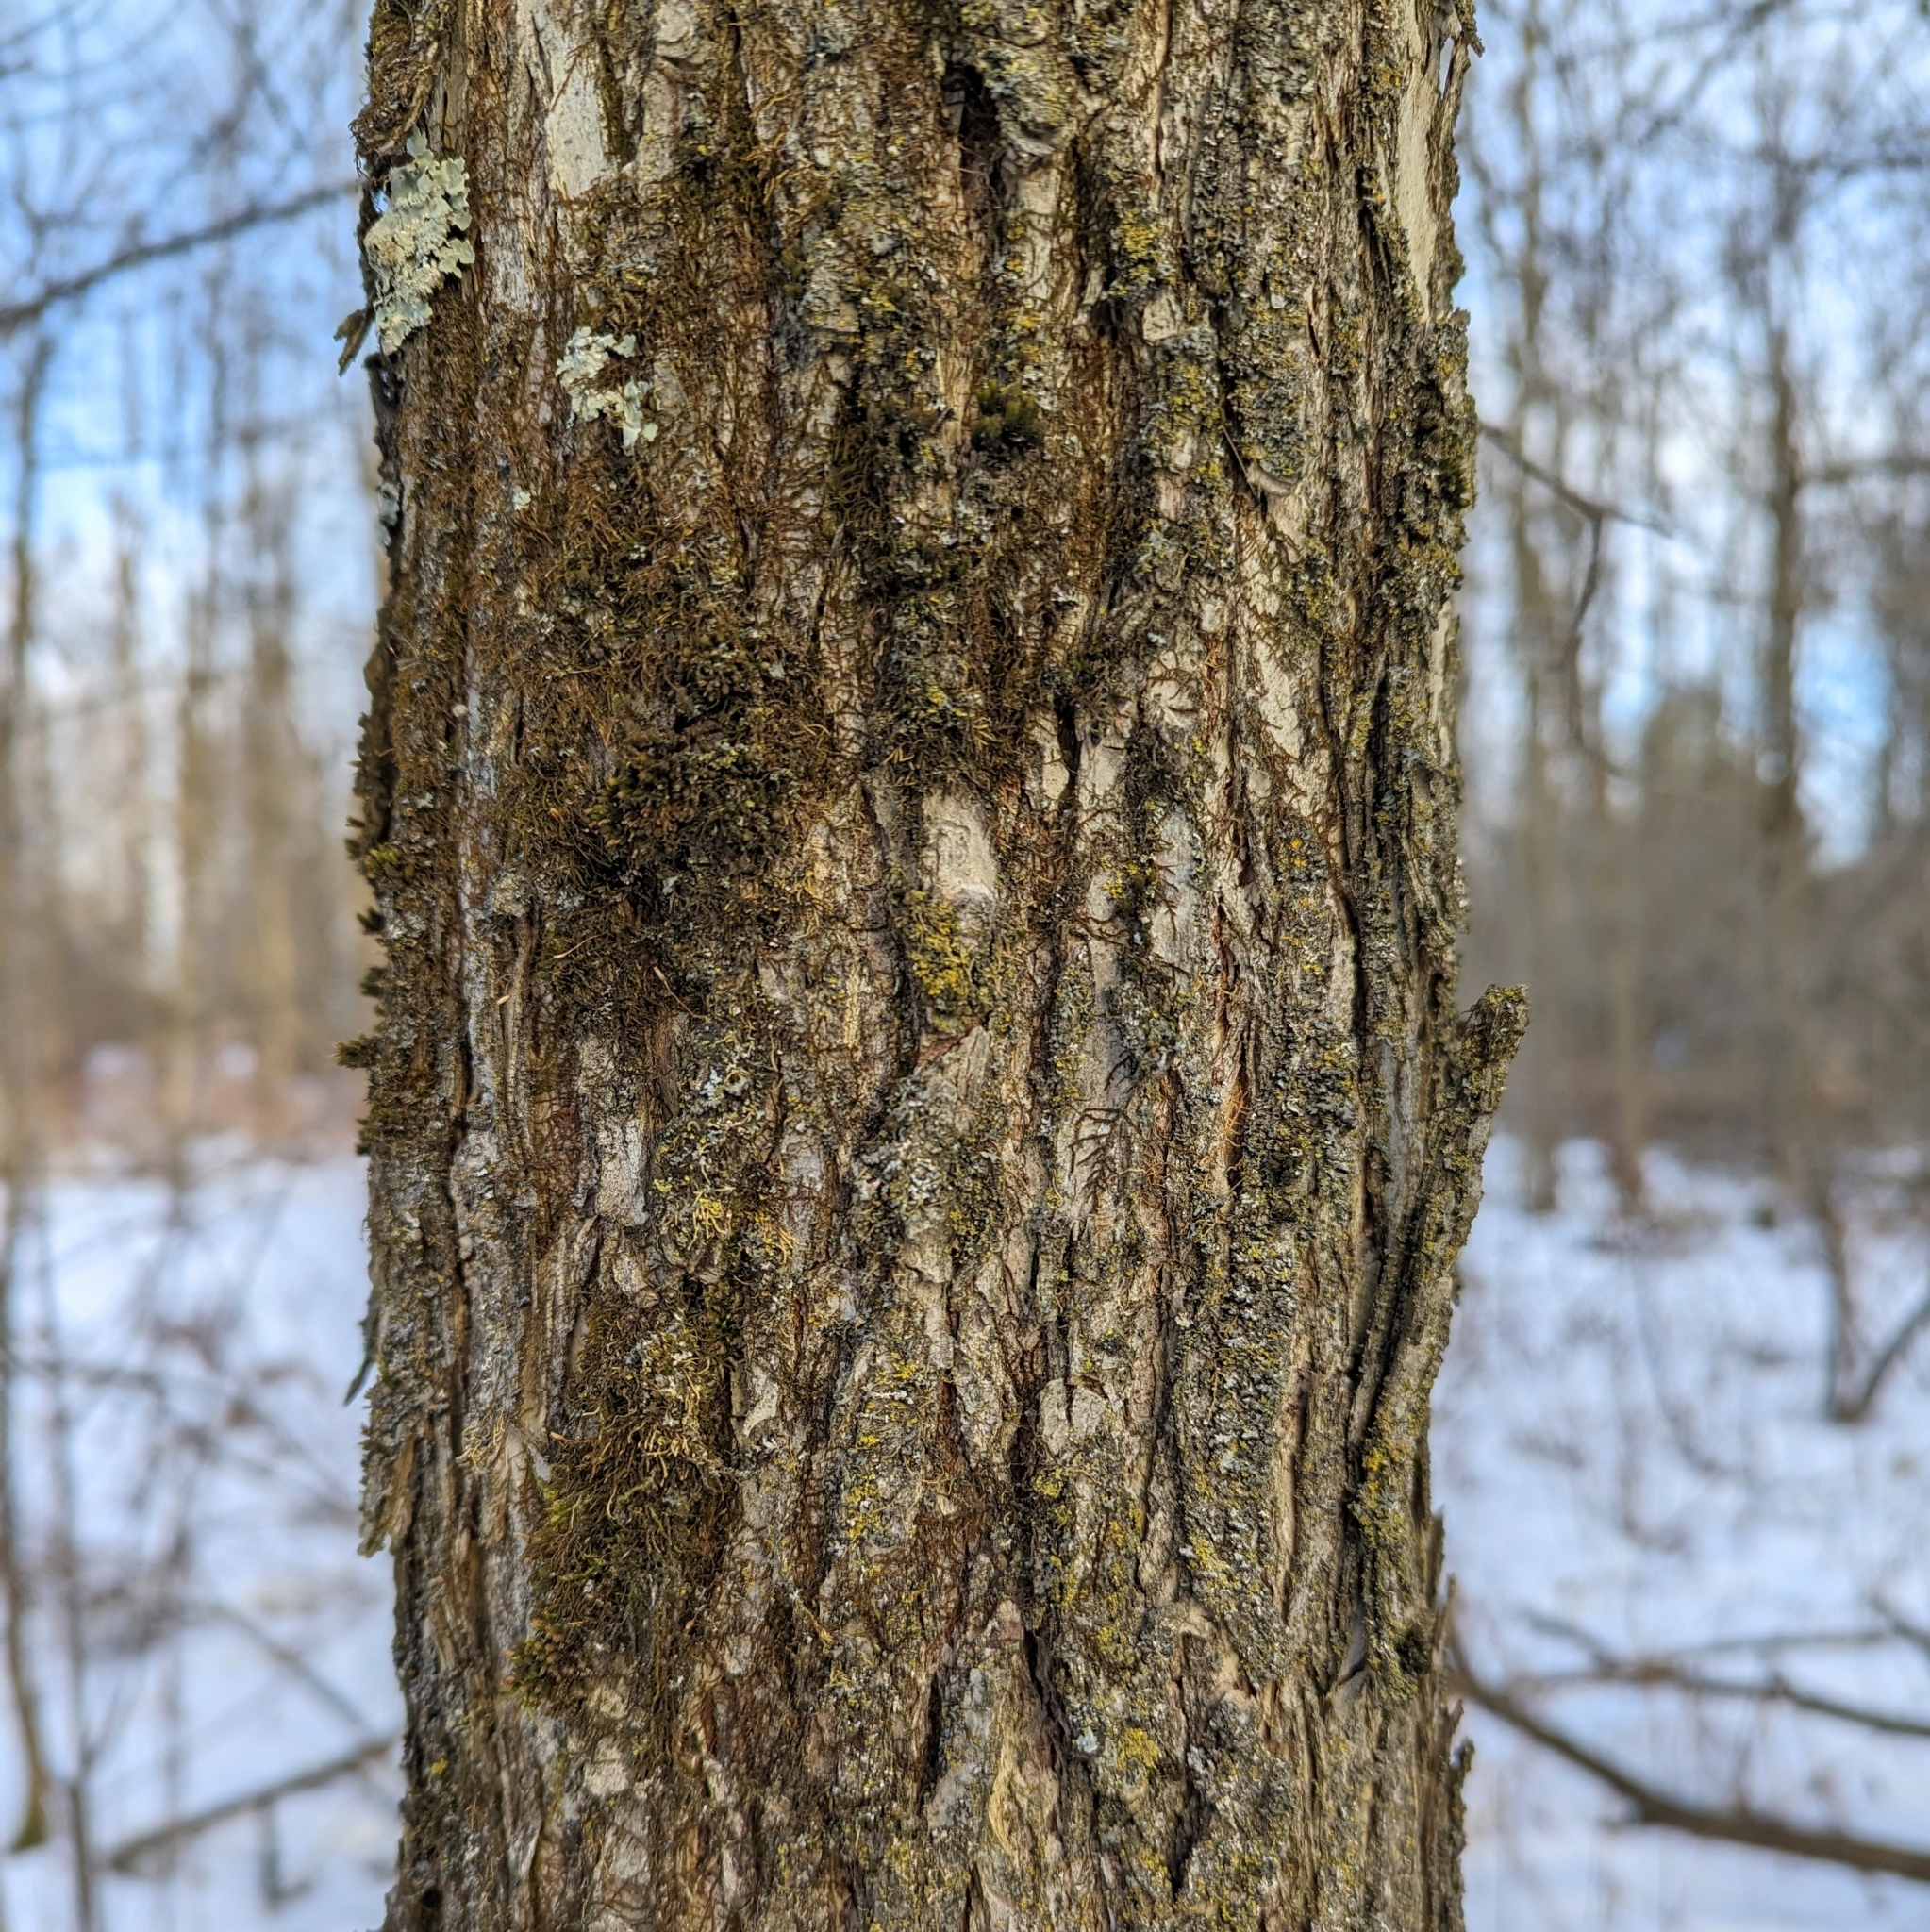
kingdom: Plantae
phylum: Tracheophyta
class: Magnoliopsida
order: Rosales
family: Ulmaceae
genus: Ulmus
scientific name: Ulmus
